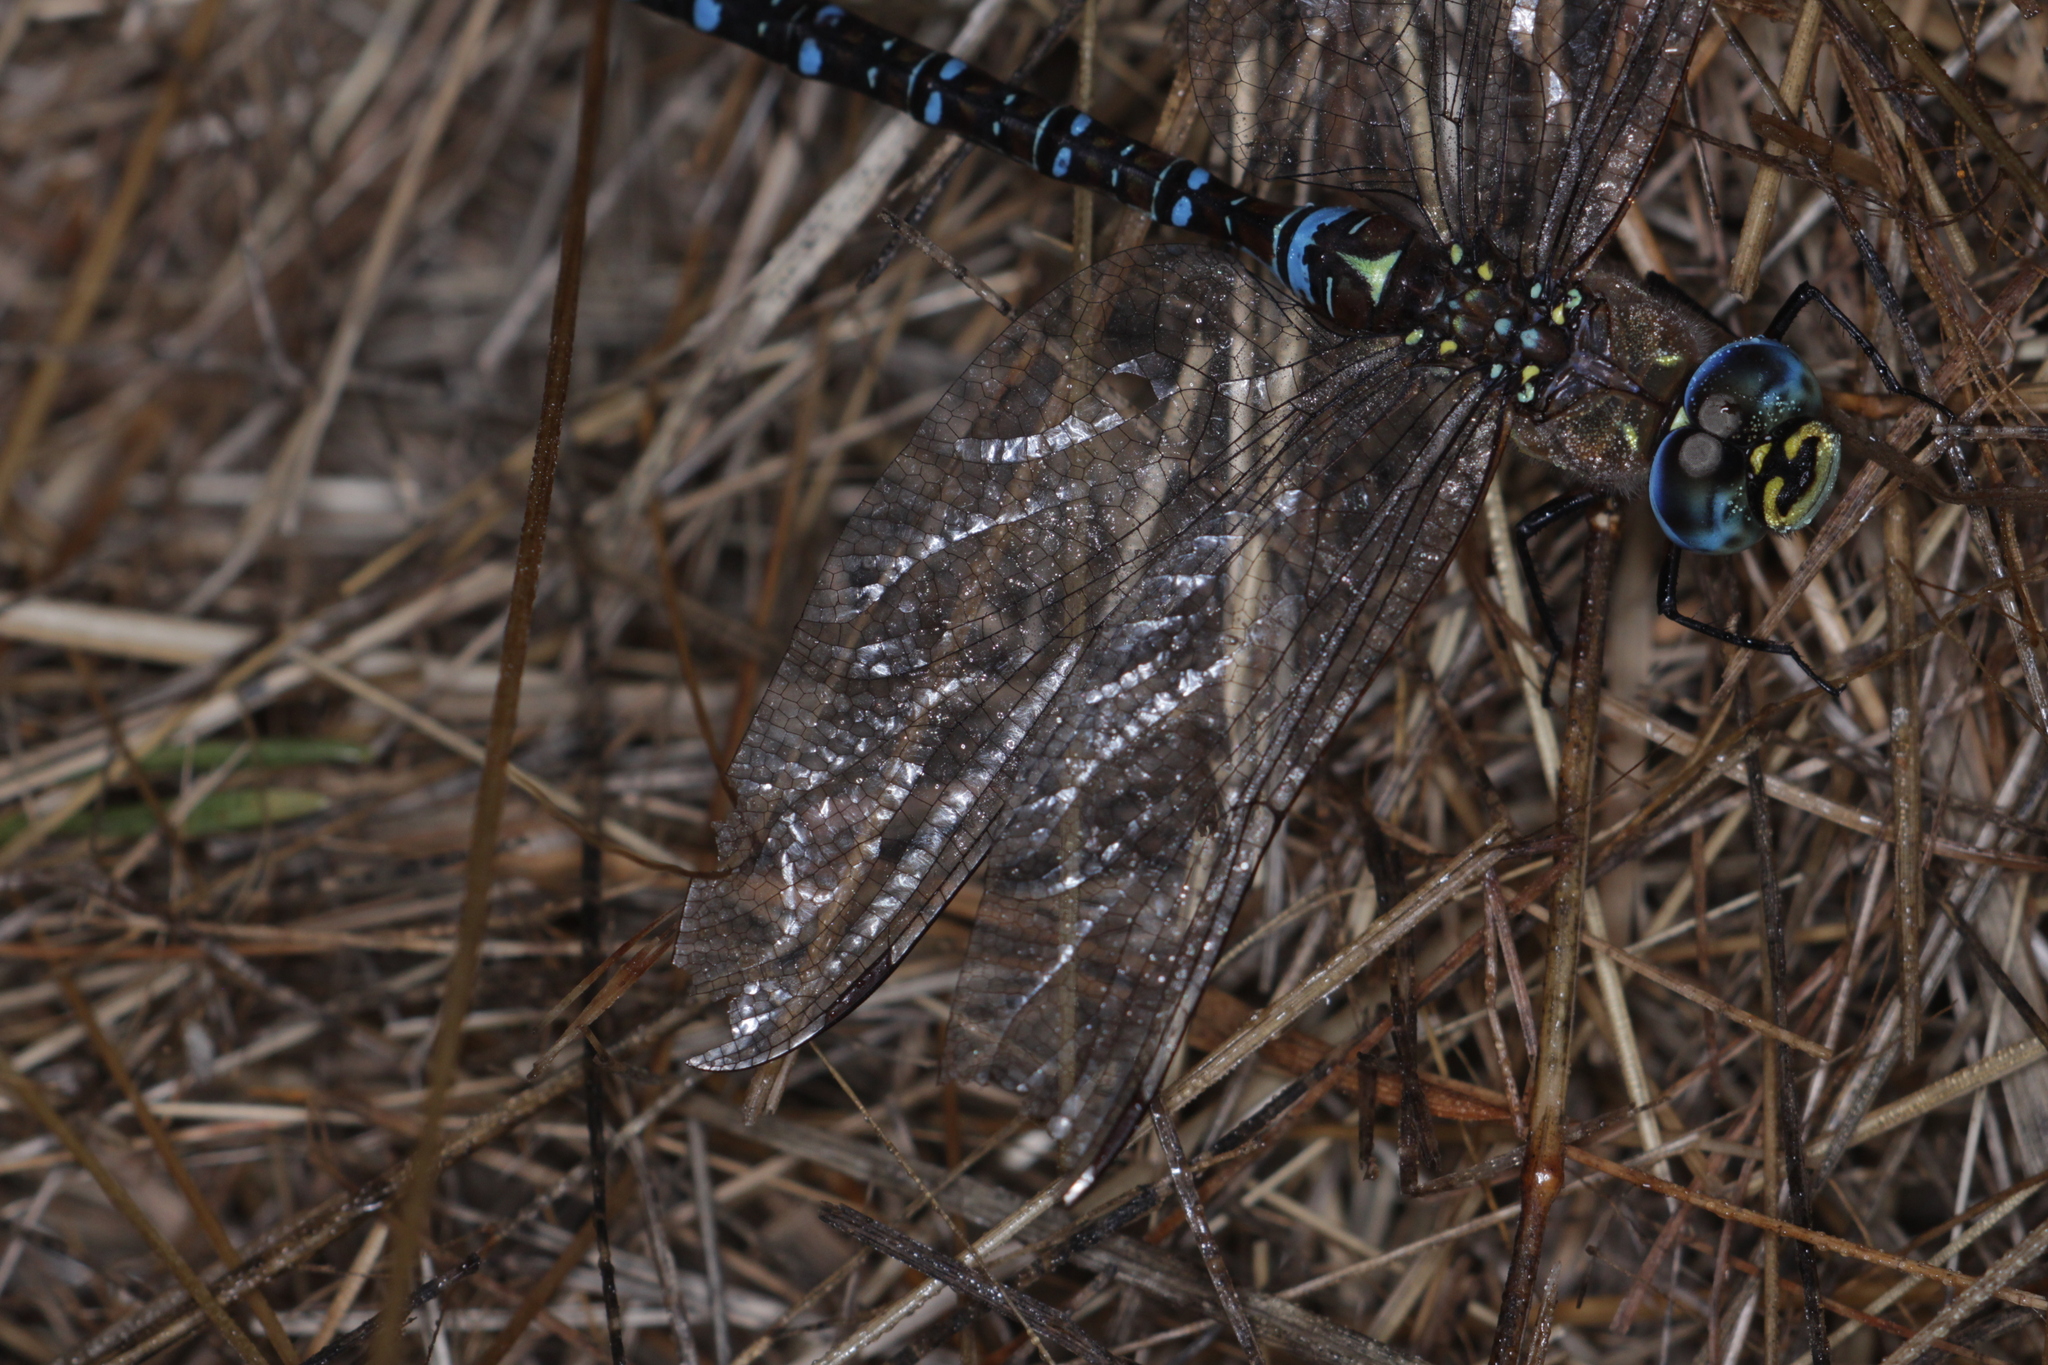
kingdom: Animalia
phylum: Arthropoda
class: Insecta
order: Odonata
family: Aeshnidae
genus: Aeshna
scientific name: Aeshna mixta
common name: Migrant hawker
